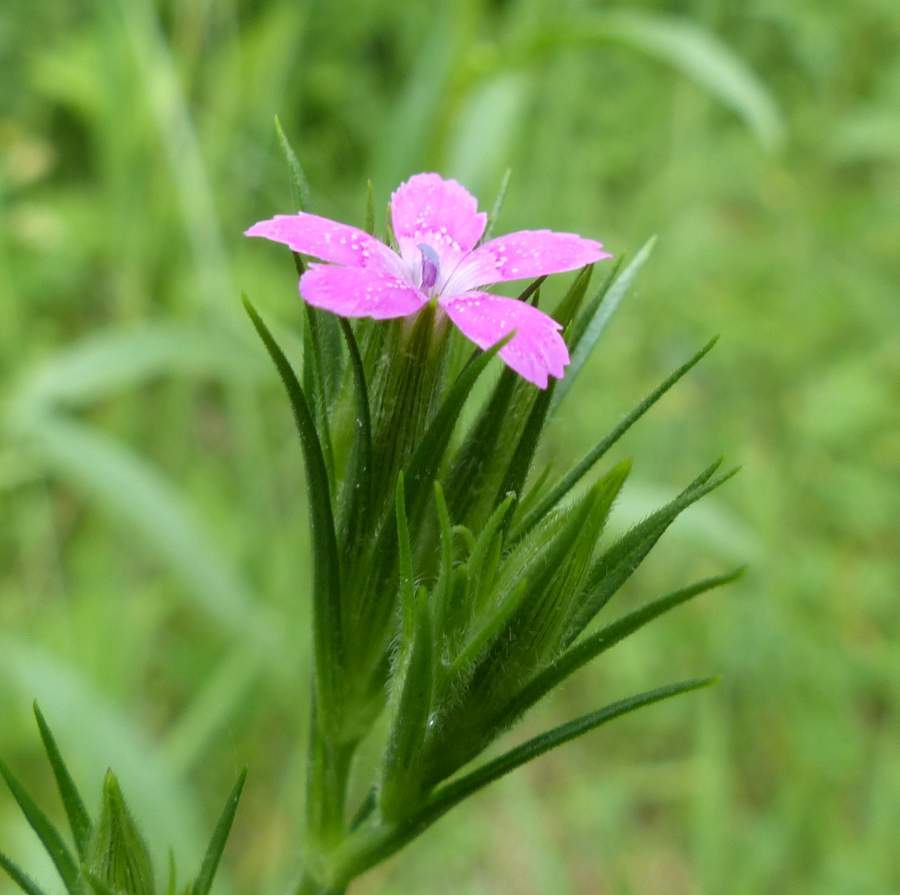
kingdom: Plantae
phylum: Tracheophyta
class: Magnoliopsida
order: Caryophyllales
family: Caryophyllaceae
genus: Dianthus
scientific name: Dianthus armeria
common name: Deptford pink
